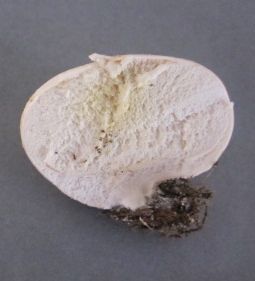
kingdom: Fungi
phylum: Basidiomycota
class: Agaricomycetes
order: Agaricales
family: Lycoperdaceae
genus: Lycoperdon
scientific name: Lycoperdon pratense
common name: Meadow puffball
